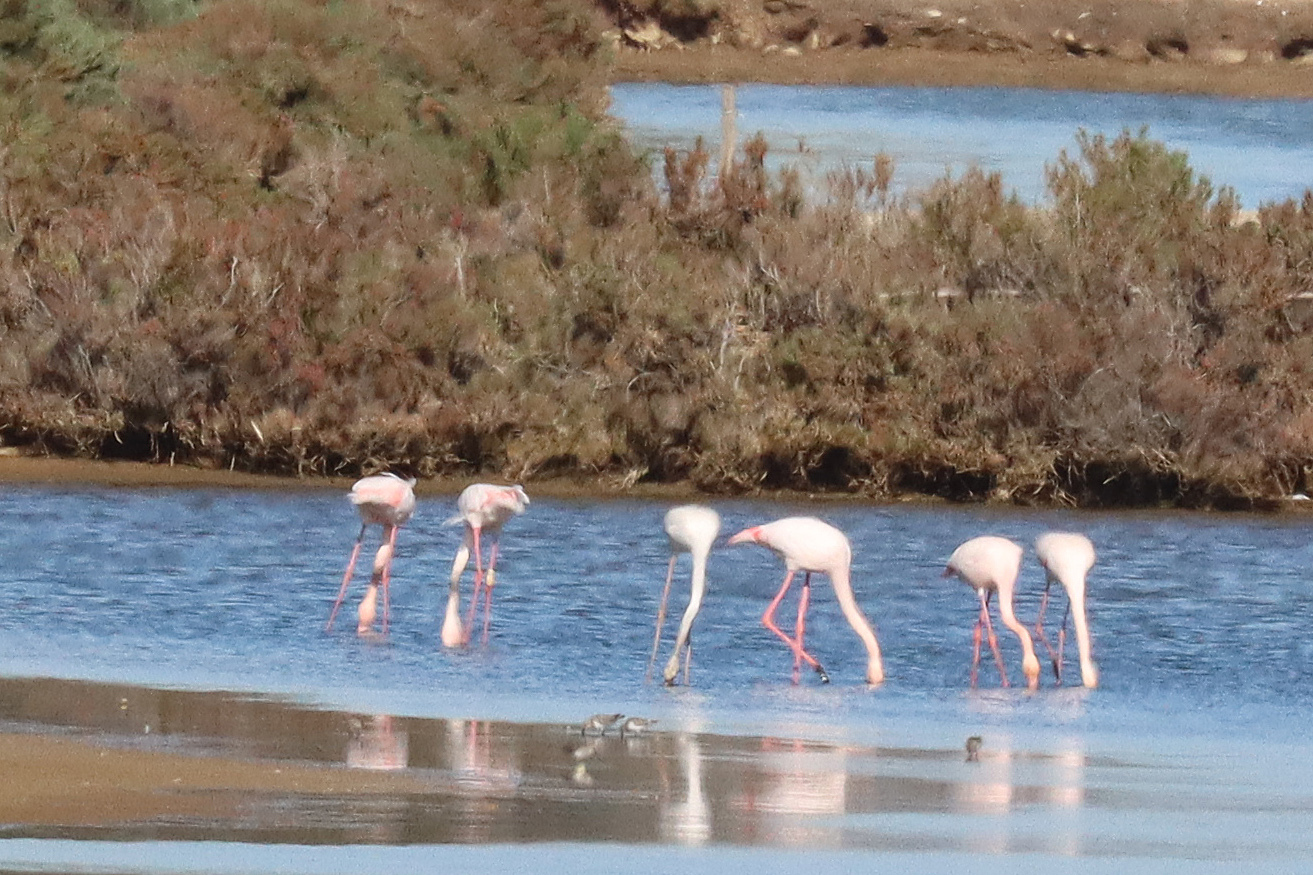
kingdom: Animalia
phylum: Chordata
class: Aves
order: Phoenicopteriformes
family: Phoenicopteridae
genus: Phoenicopterus
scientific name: Phoenicopterus roseus
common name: Greater flamingo
